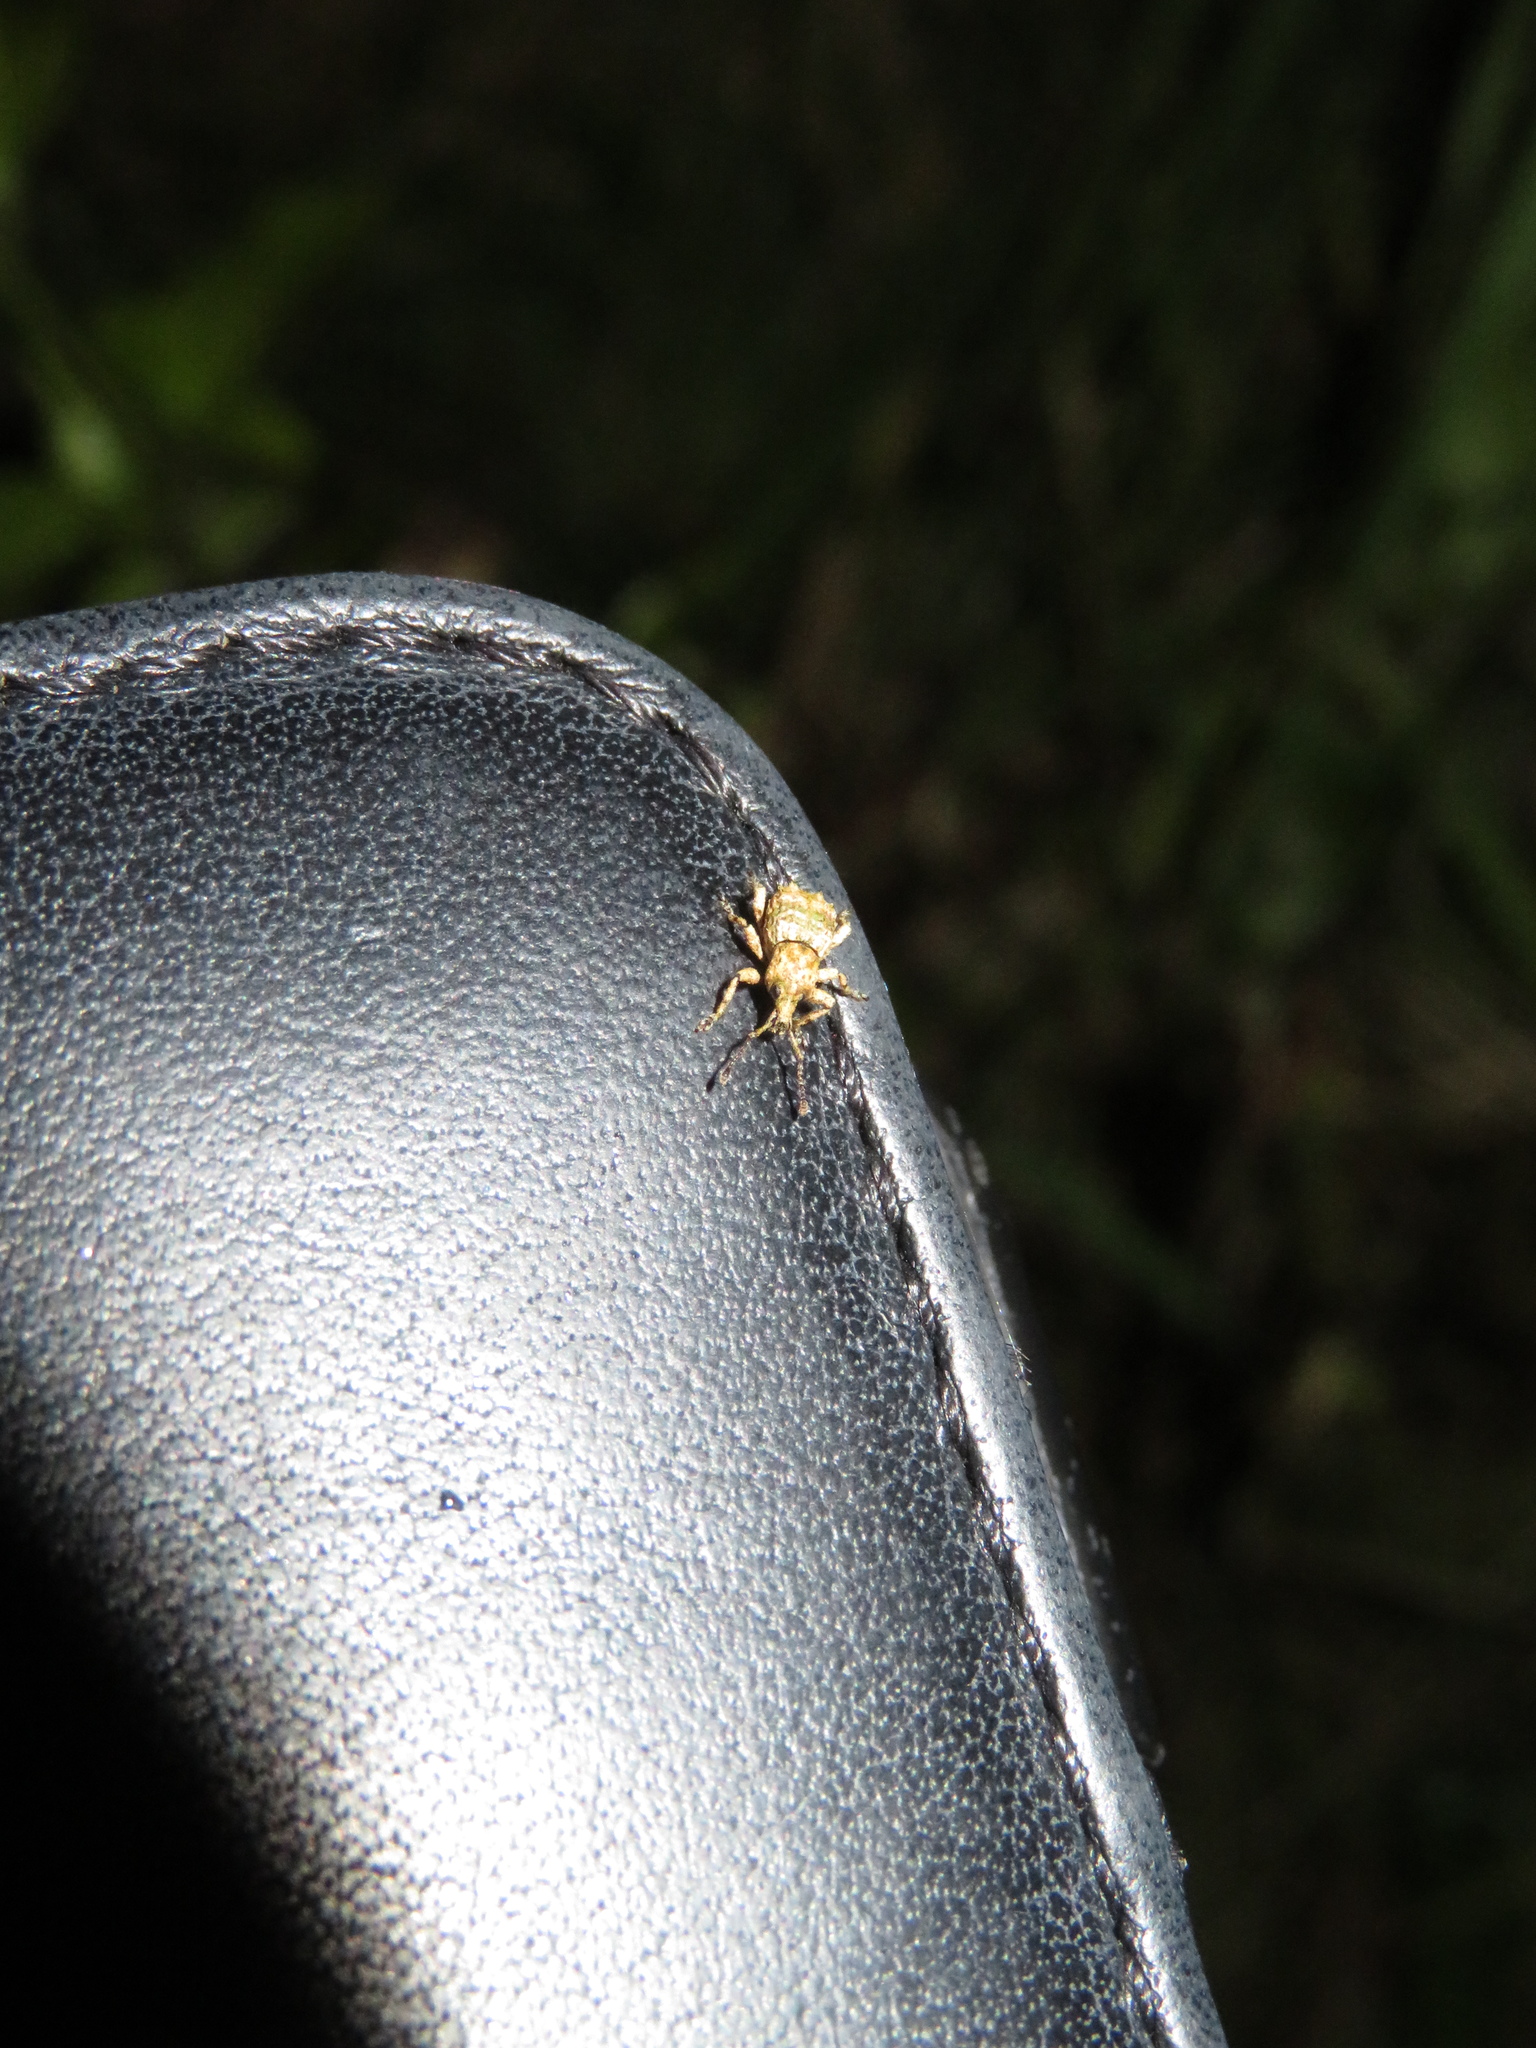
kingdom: Animalia
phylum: Arthropoda
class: Insecta
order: Coleoptera
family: Curculionidae
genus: Brachyolus
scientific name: Brachyolus punctatus
